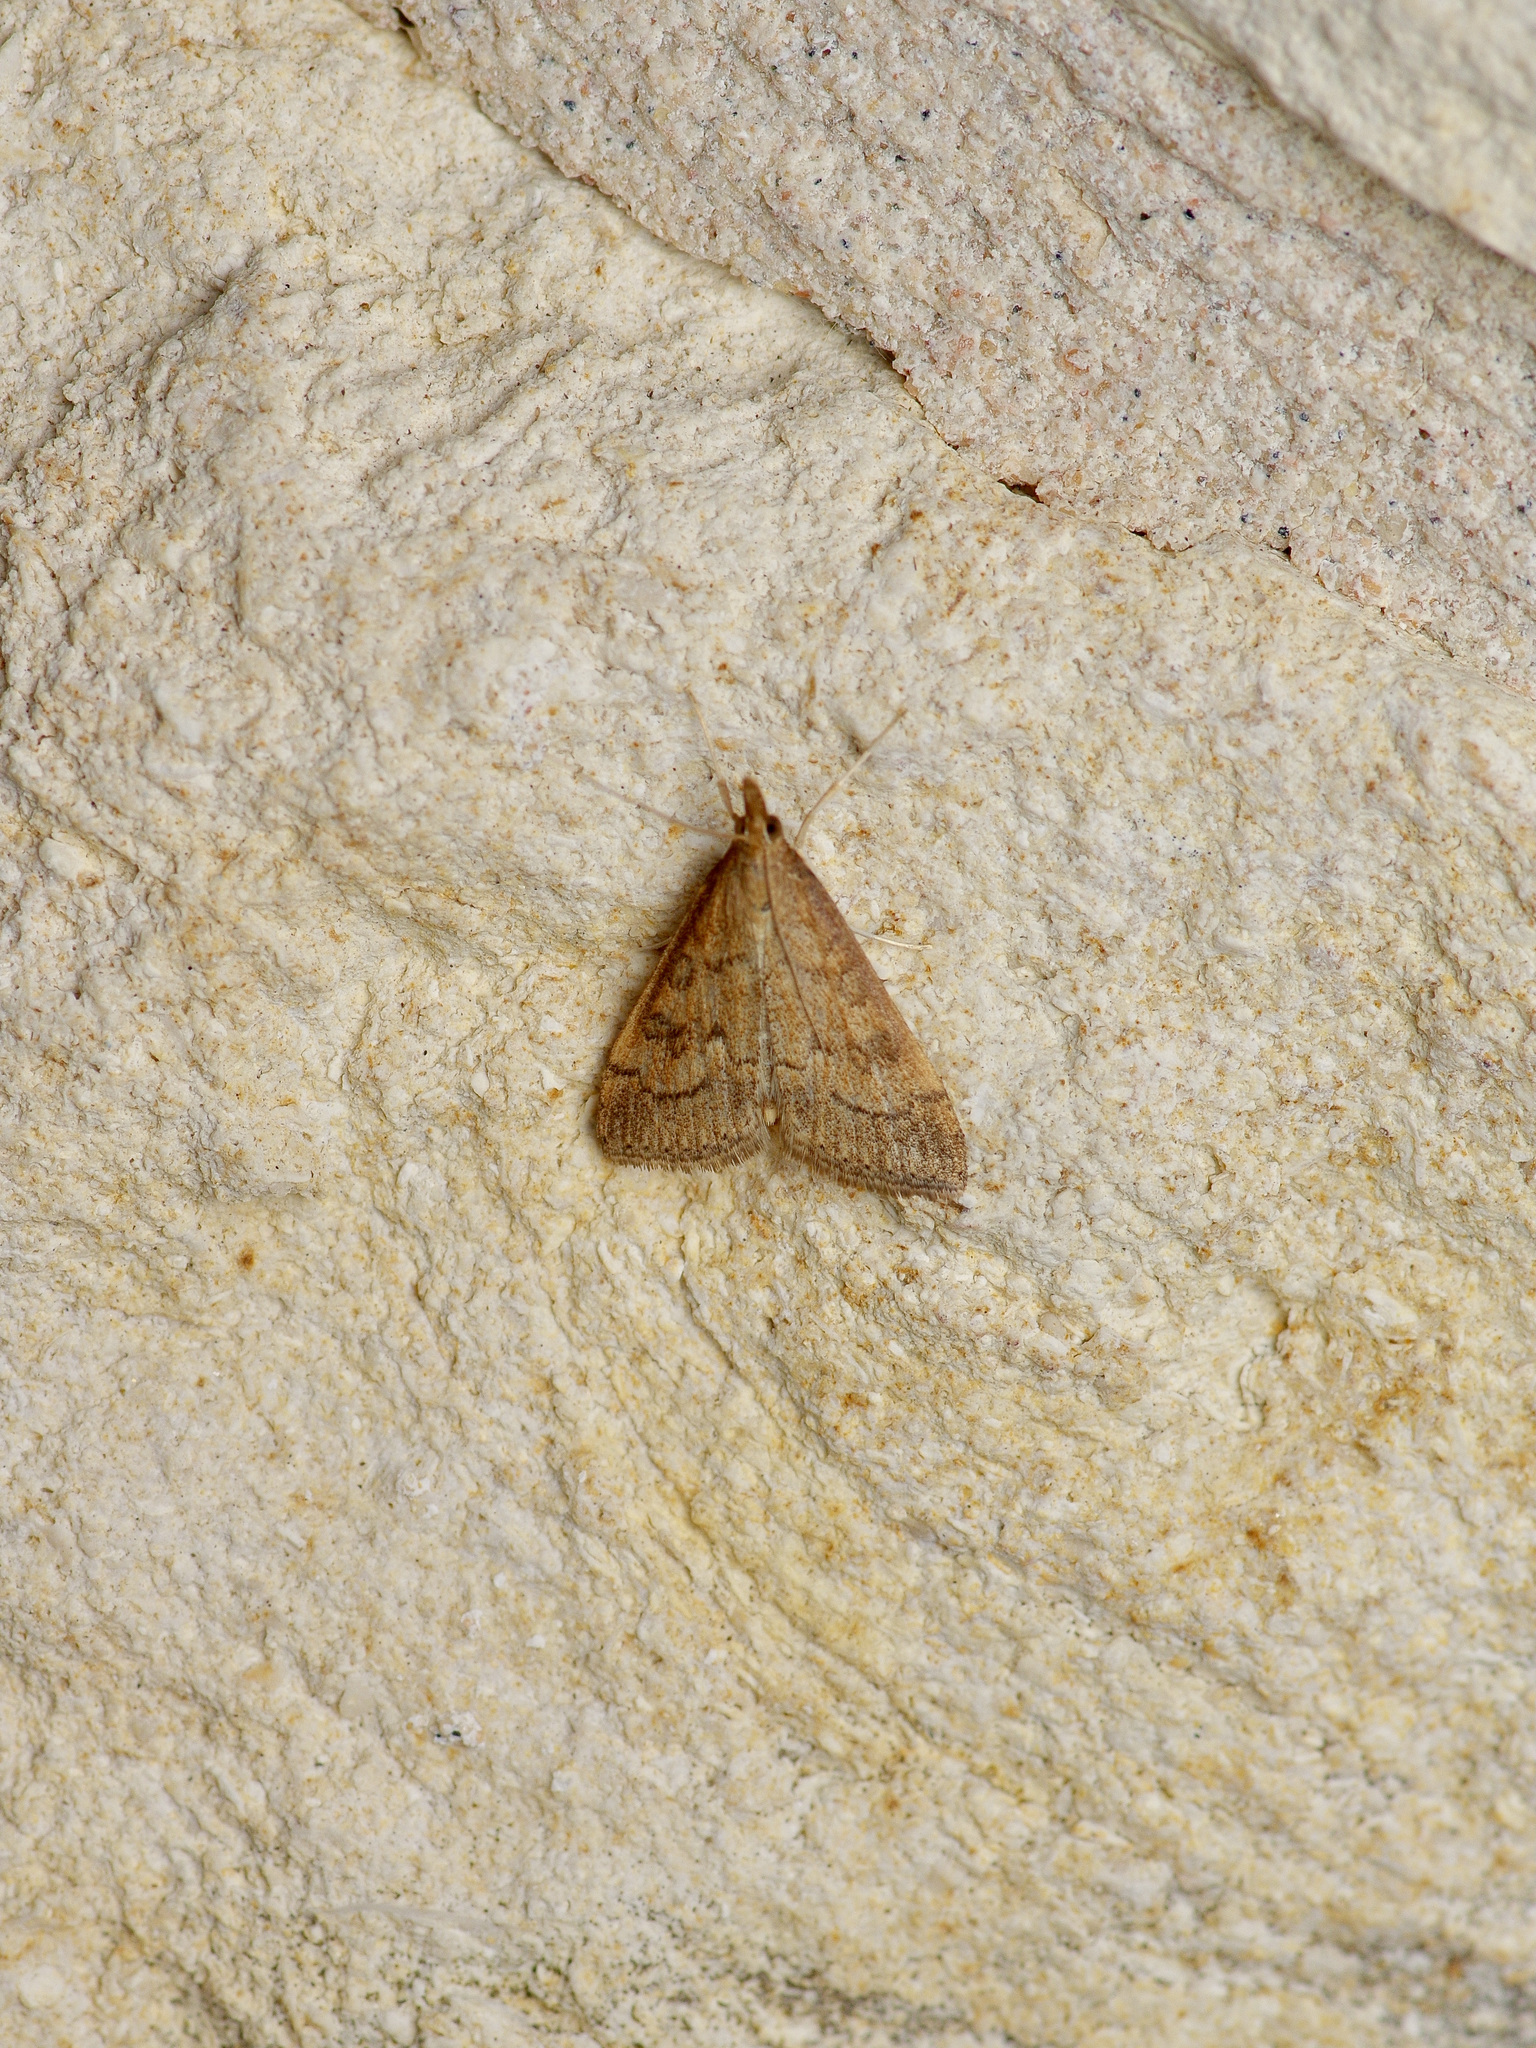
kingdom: Animalia
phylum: Arthropoda
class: Insecta
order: Lepidoptera
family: Crambidae
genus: Udea
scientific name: Udea rubigalis
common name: Celery leaftier moth
